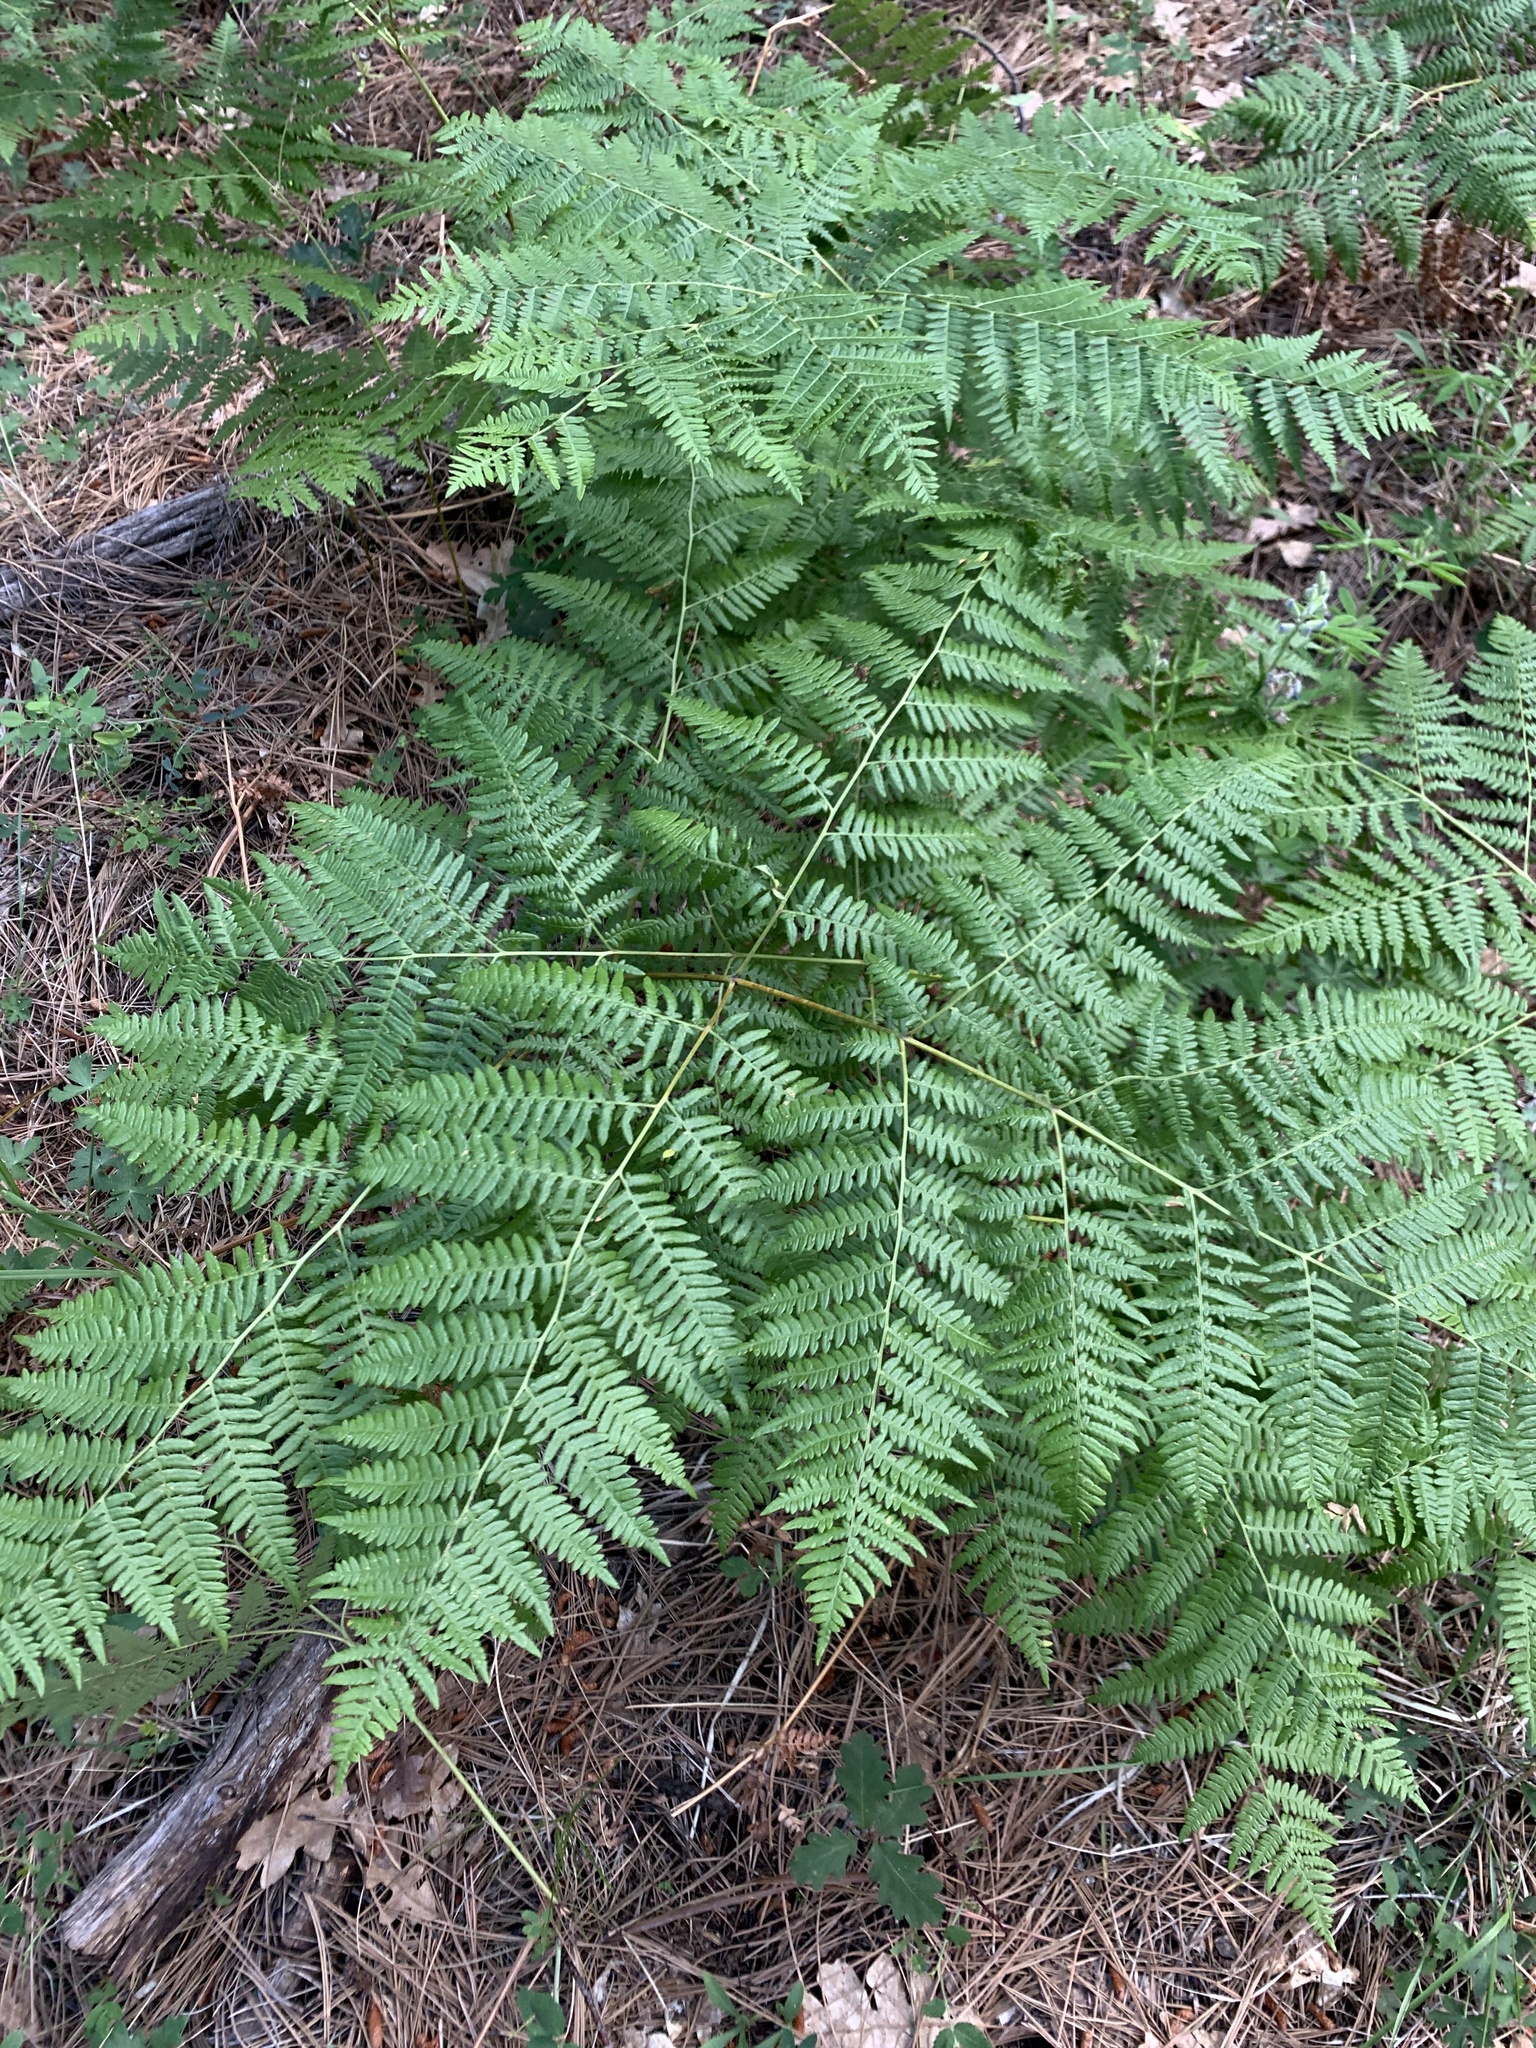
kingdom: Plantae
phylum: Tracheophyta
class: Polypodiopsida
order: Polypodiales
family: Dennstaedtiaceae
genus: Pteridium
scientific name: Pteridium aquilinum
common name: Bracken
